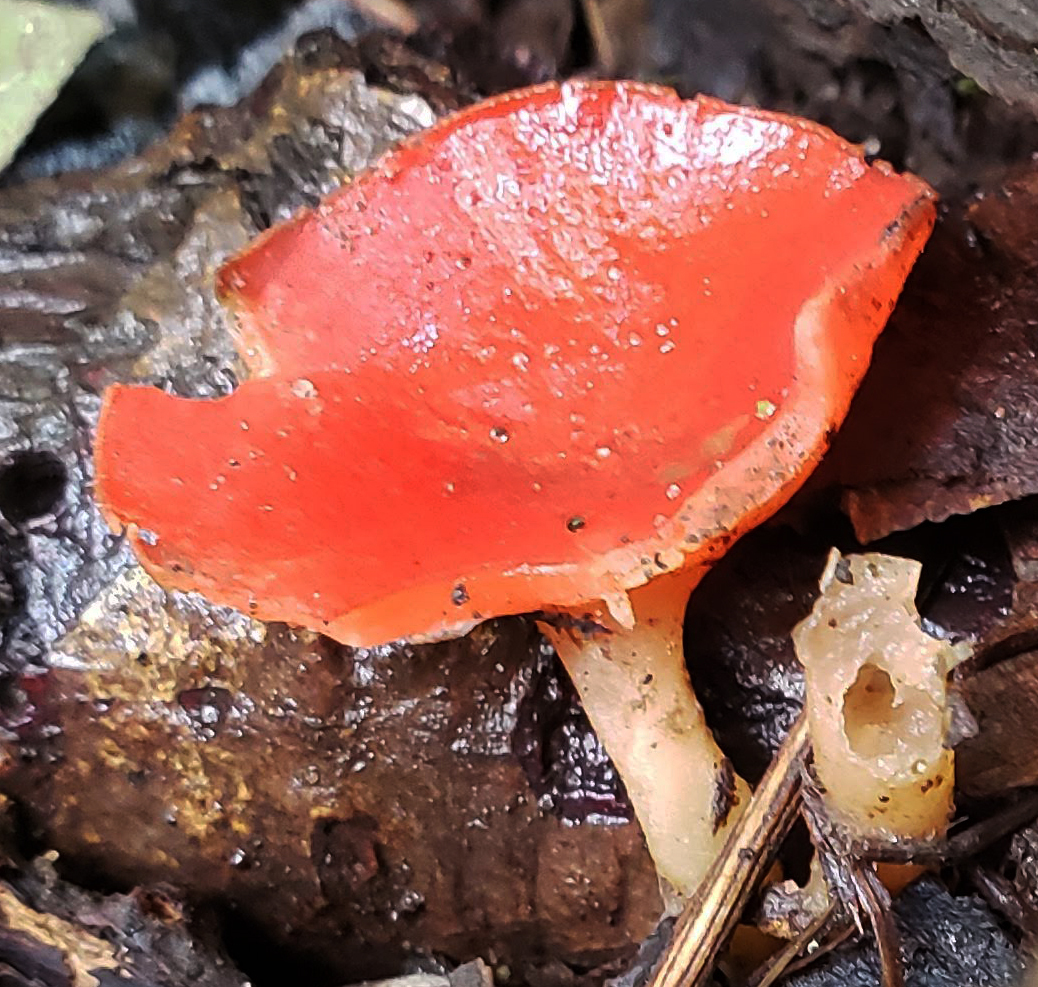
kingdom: Fungi
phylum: Ascomycota
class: Pezizomycetes
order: Pezizales
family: Sarcoscyphaceae
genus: Sarcoscypha
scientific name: Sarcoscypha occidentalis
